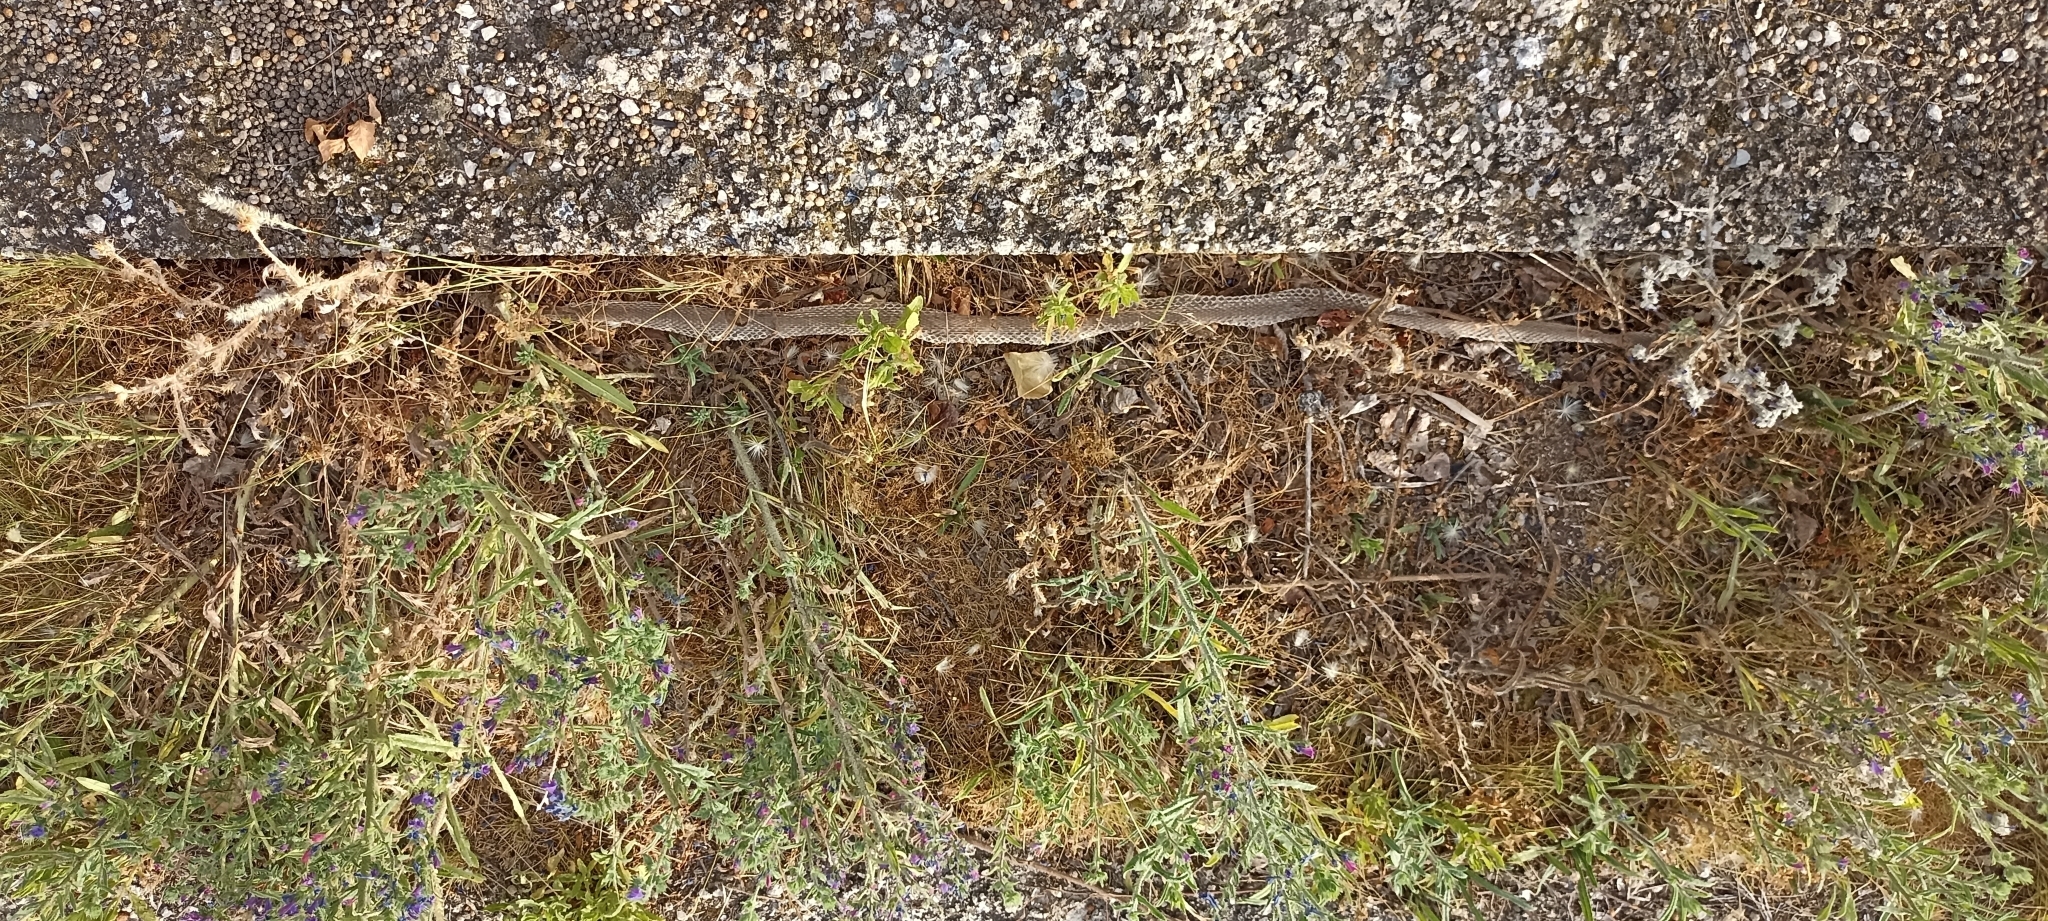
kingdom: Animalia
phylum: Chordata
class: Squamata
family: Psammophiidae
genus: Malpolon
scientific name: Malpolon monspessulanus
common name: Montpellier snake
